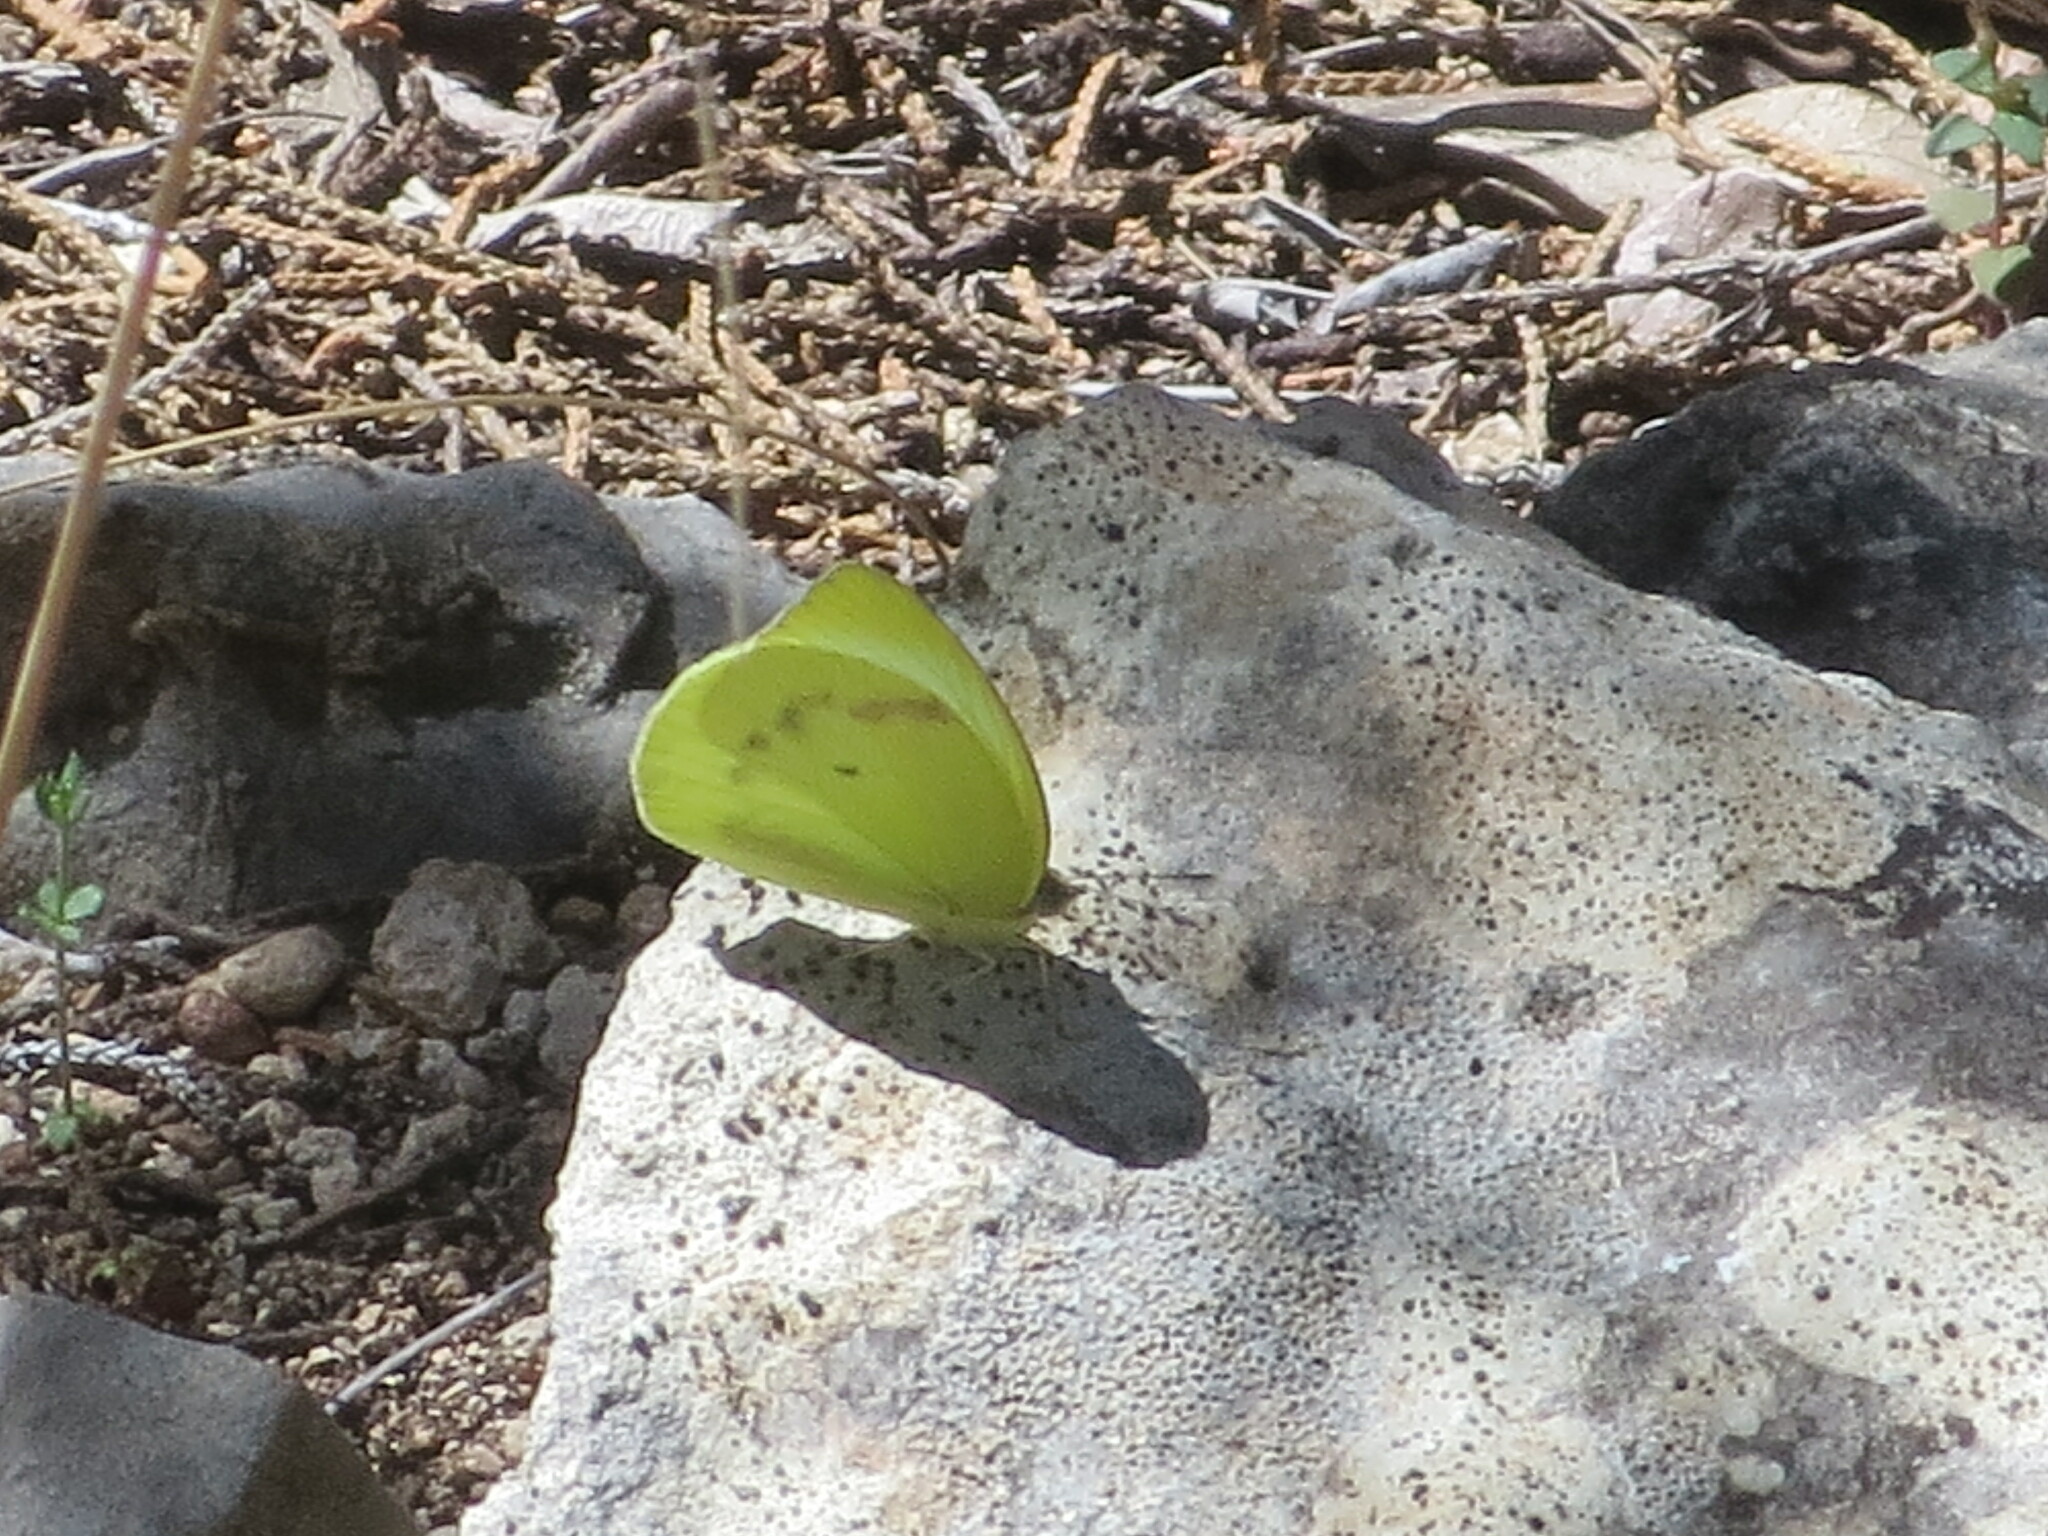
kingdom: Animalia
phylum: Arthropoda
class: Insecta
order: Lepidoptera
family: Pieridae
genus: Kricogonia
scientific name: Kricogonia lyside
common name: Guayacan sulphur,
